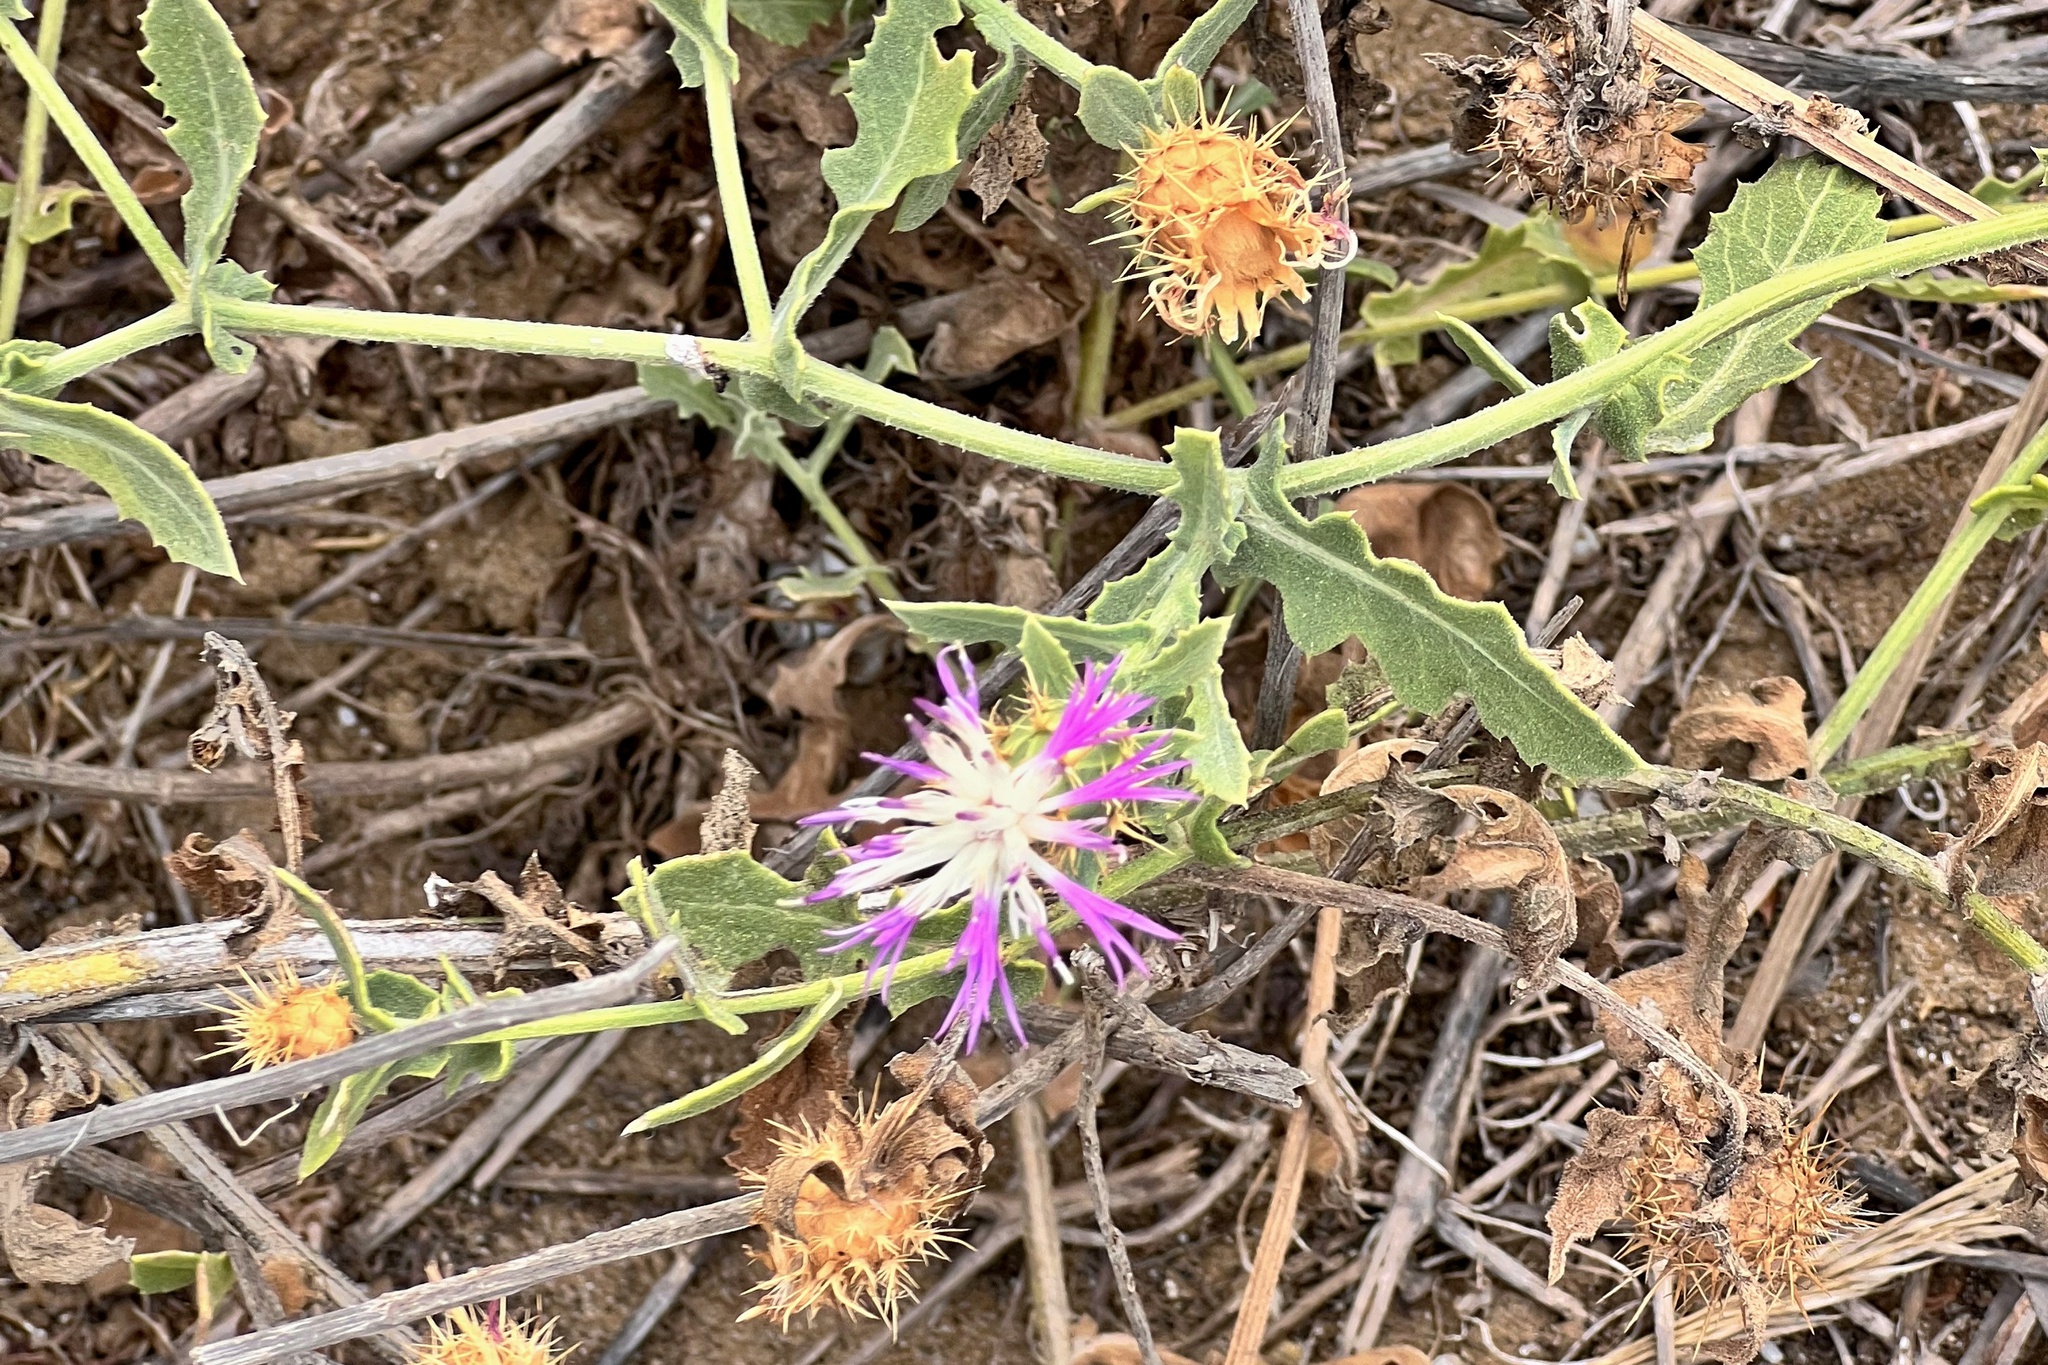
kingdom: Plantae
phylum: Tracheophyta
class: Magnoliopsida
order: Asterales
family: Asteraceae
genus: Centaurea
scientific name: Centaurea sphaerocephala
